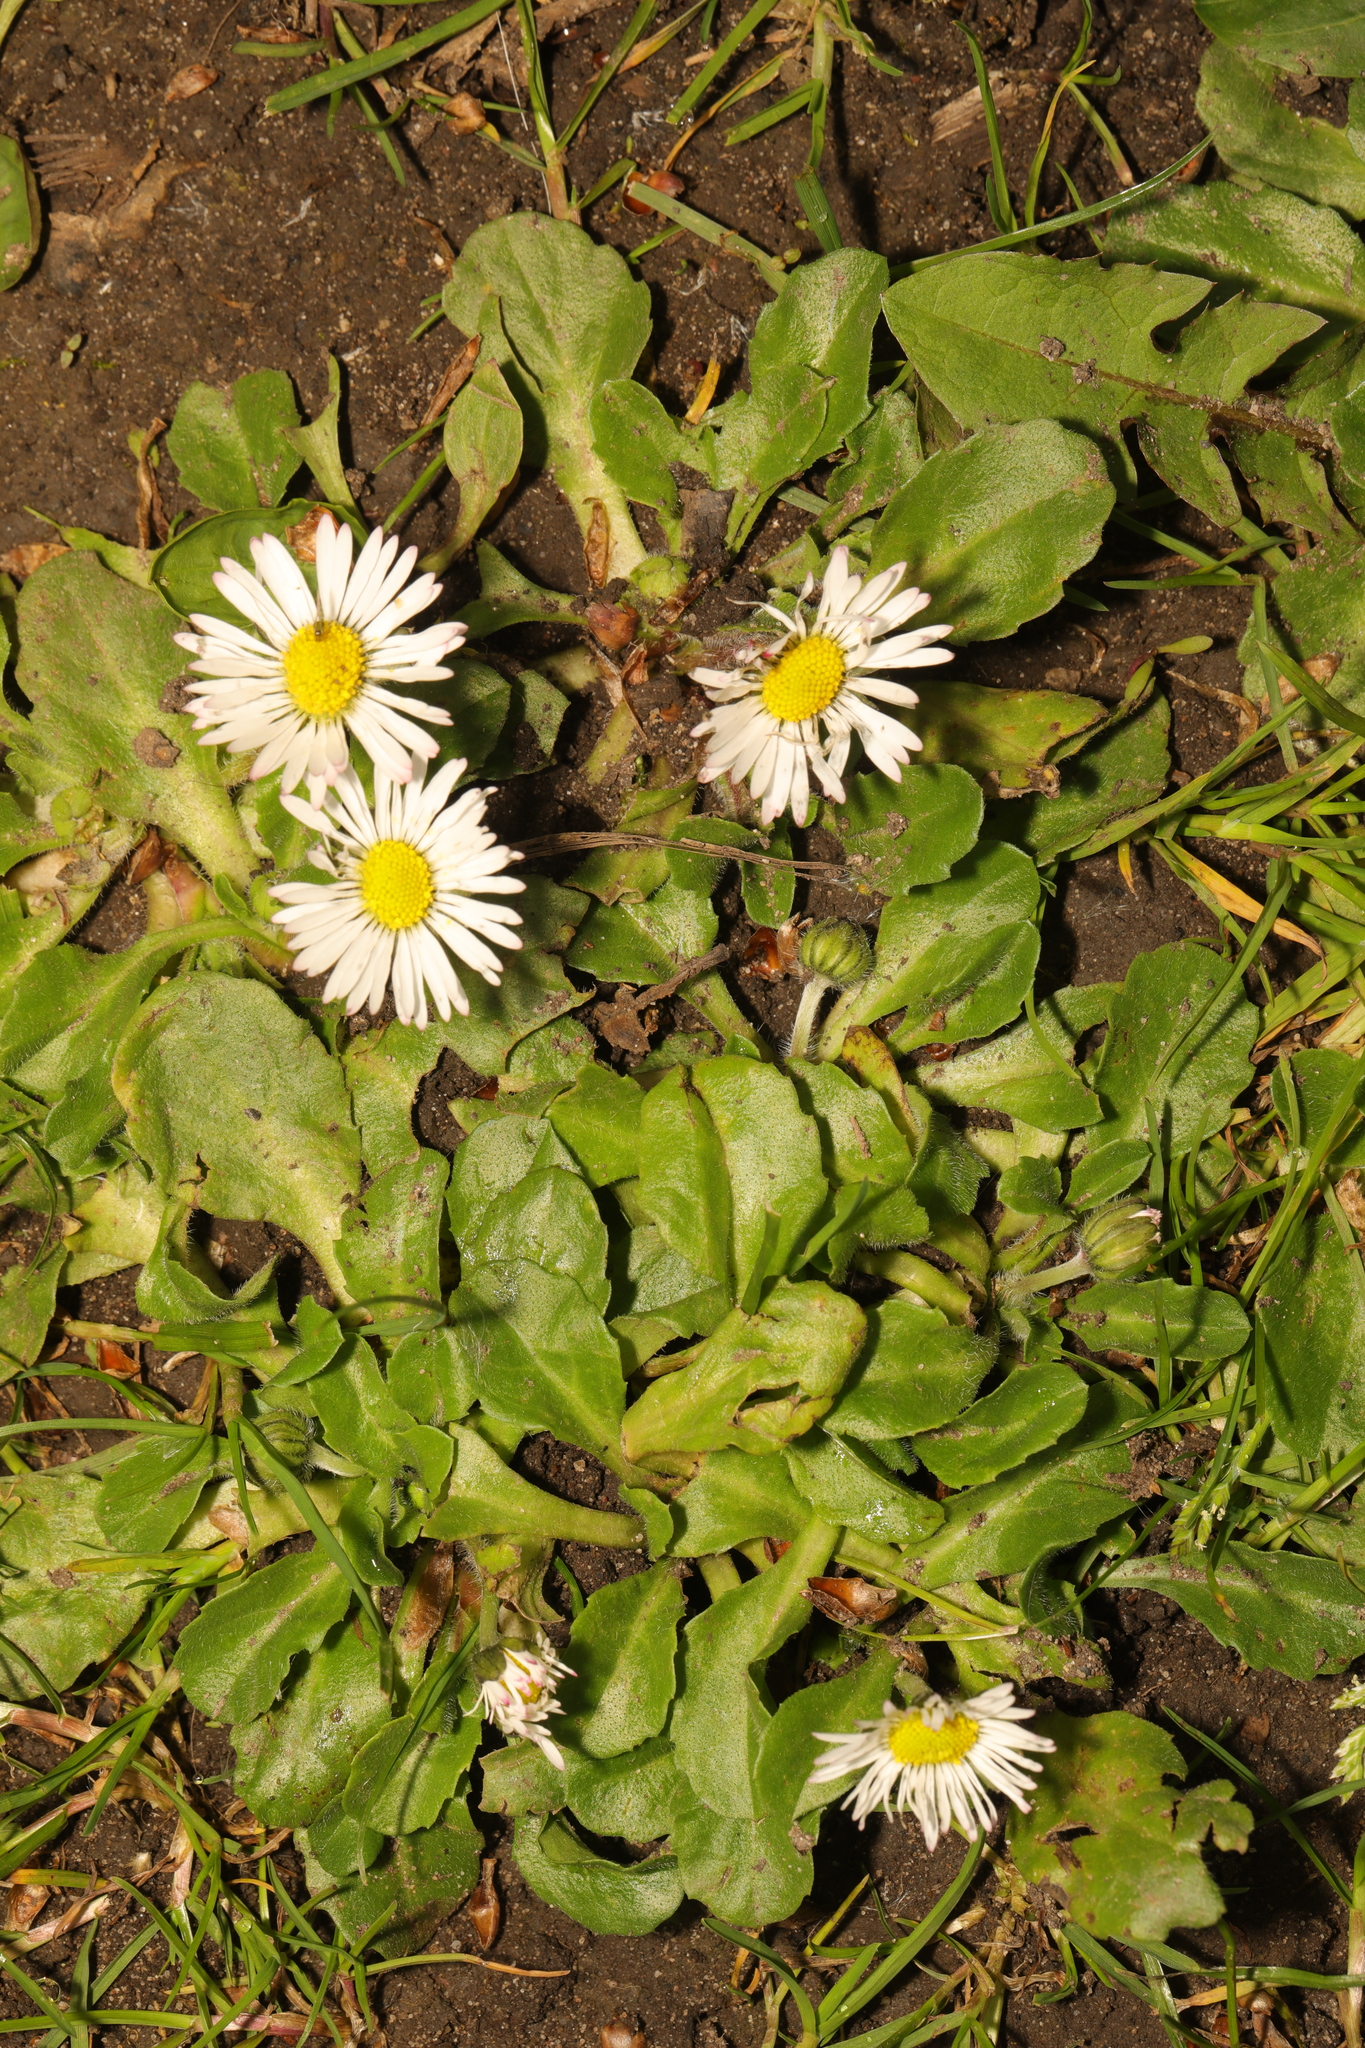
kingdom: Plantae
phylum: Tracheophyta
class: Magnoliopsida
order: Asterales
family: Asteraceae
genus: Bellis
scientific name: Bellis perennis
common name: Lawndaisy
